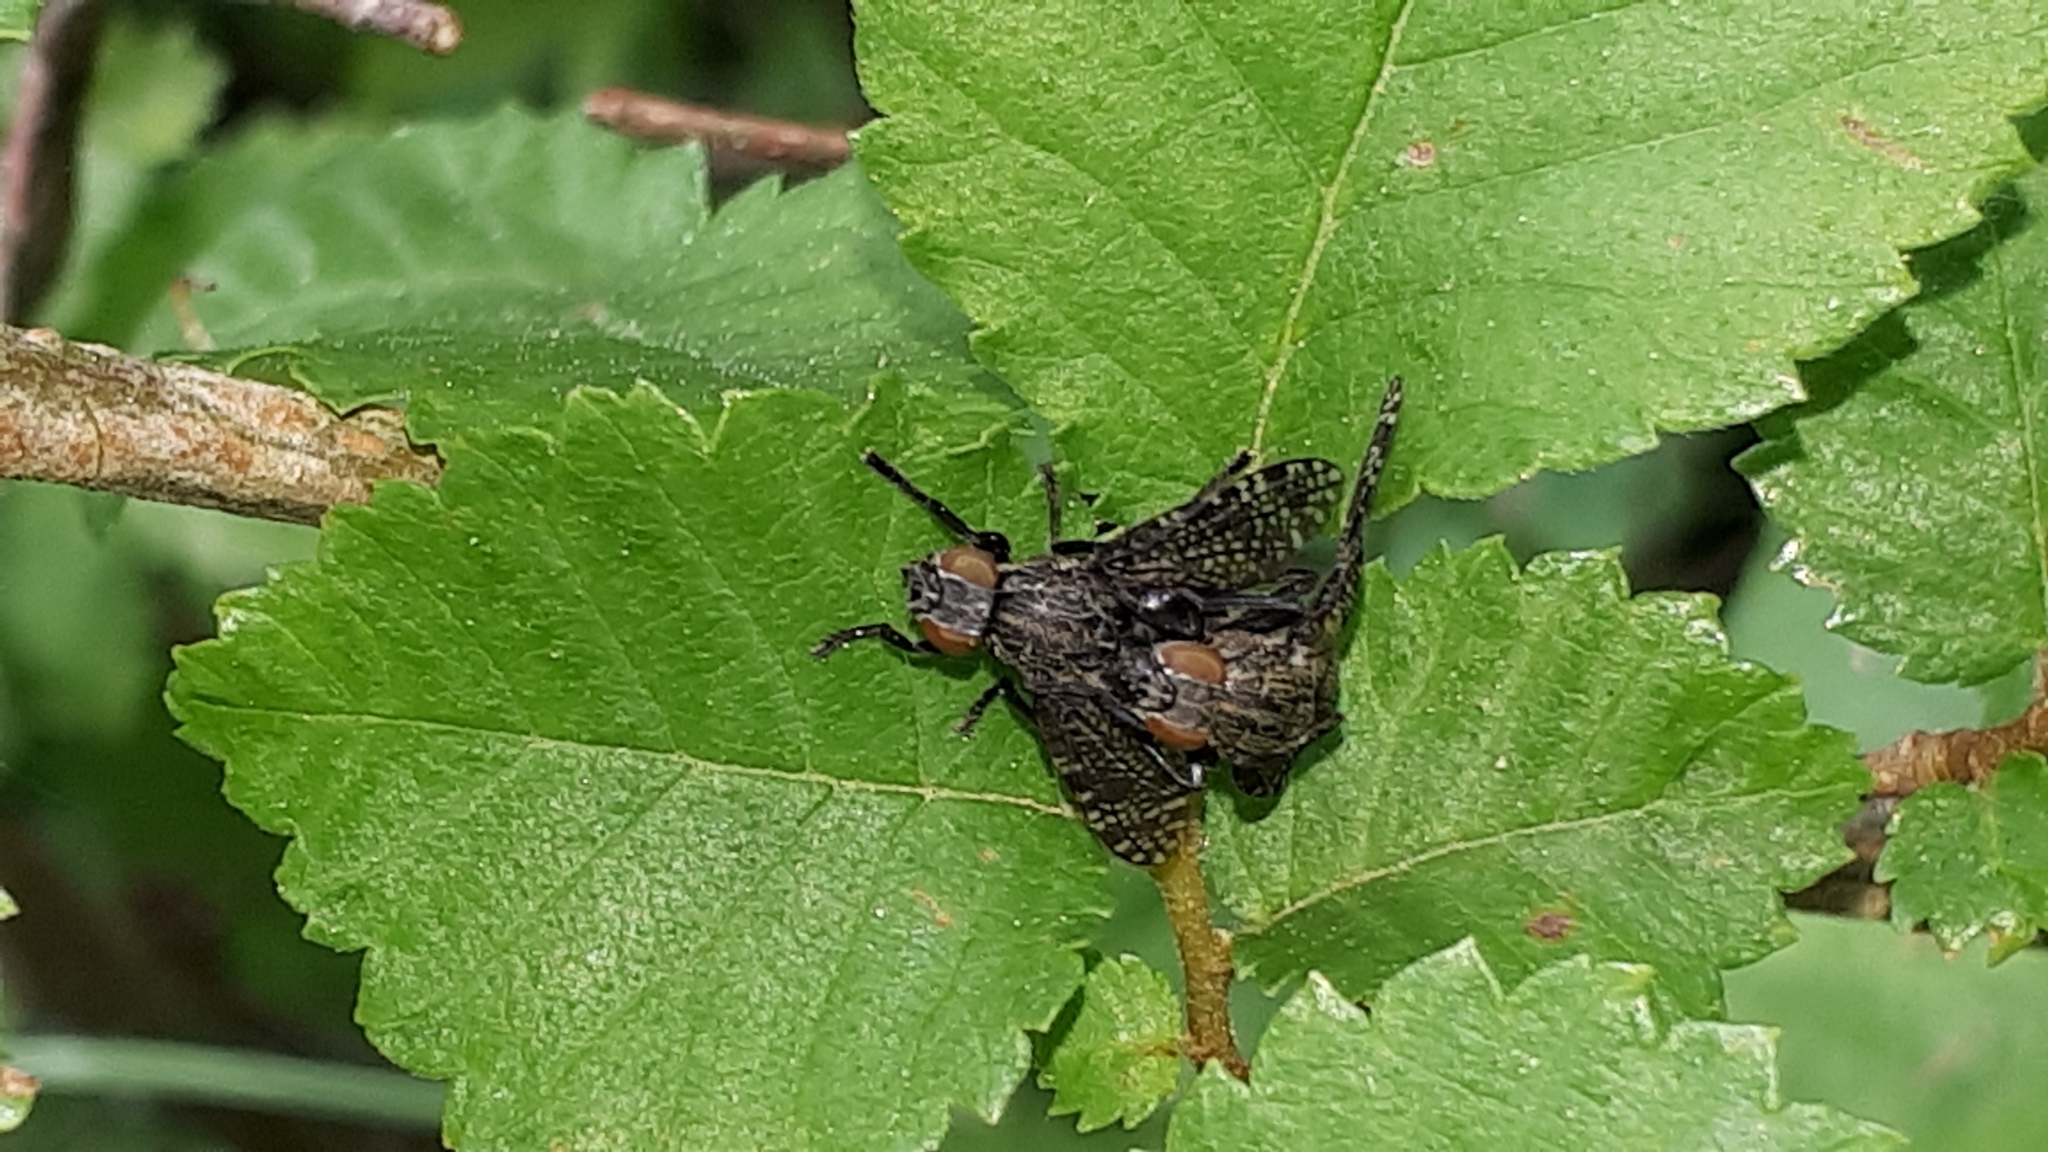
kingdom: Animalia
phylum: Arthropoda
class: Insecta
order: Diptera
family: Platystomatidae
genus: Platystoma
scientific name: Platystoma seminationis
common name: Fly
